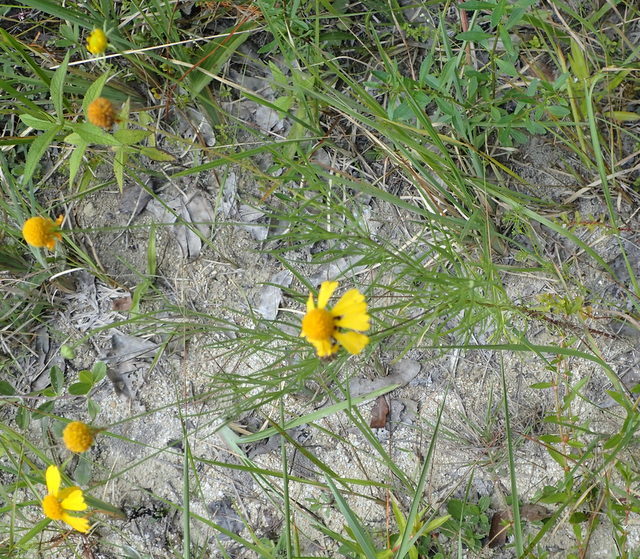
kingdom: Plantae
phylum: Tracheophyta
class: Magnoliopsida
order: Asterales
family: Asteraceae
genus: Helenium
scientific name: Helenium amarum
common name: Bitter sneezeweed
